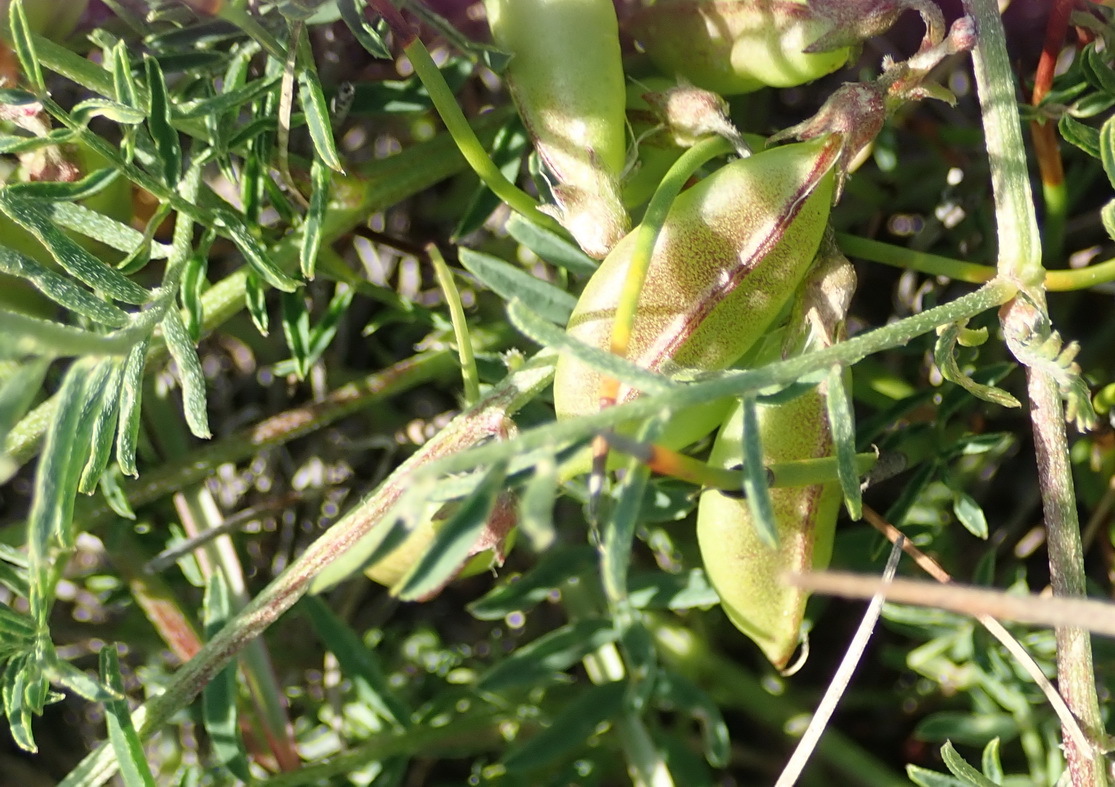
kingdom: Plantae
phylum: Tracheophyta
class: Magnoliopsida
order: Fabales
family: Fabaceae
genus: Lessertia
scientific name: Lessertia miniata
